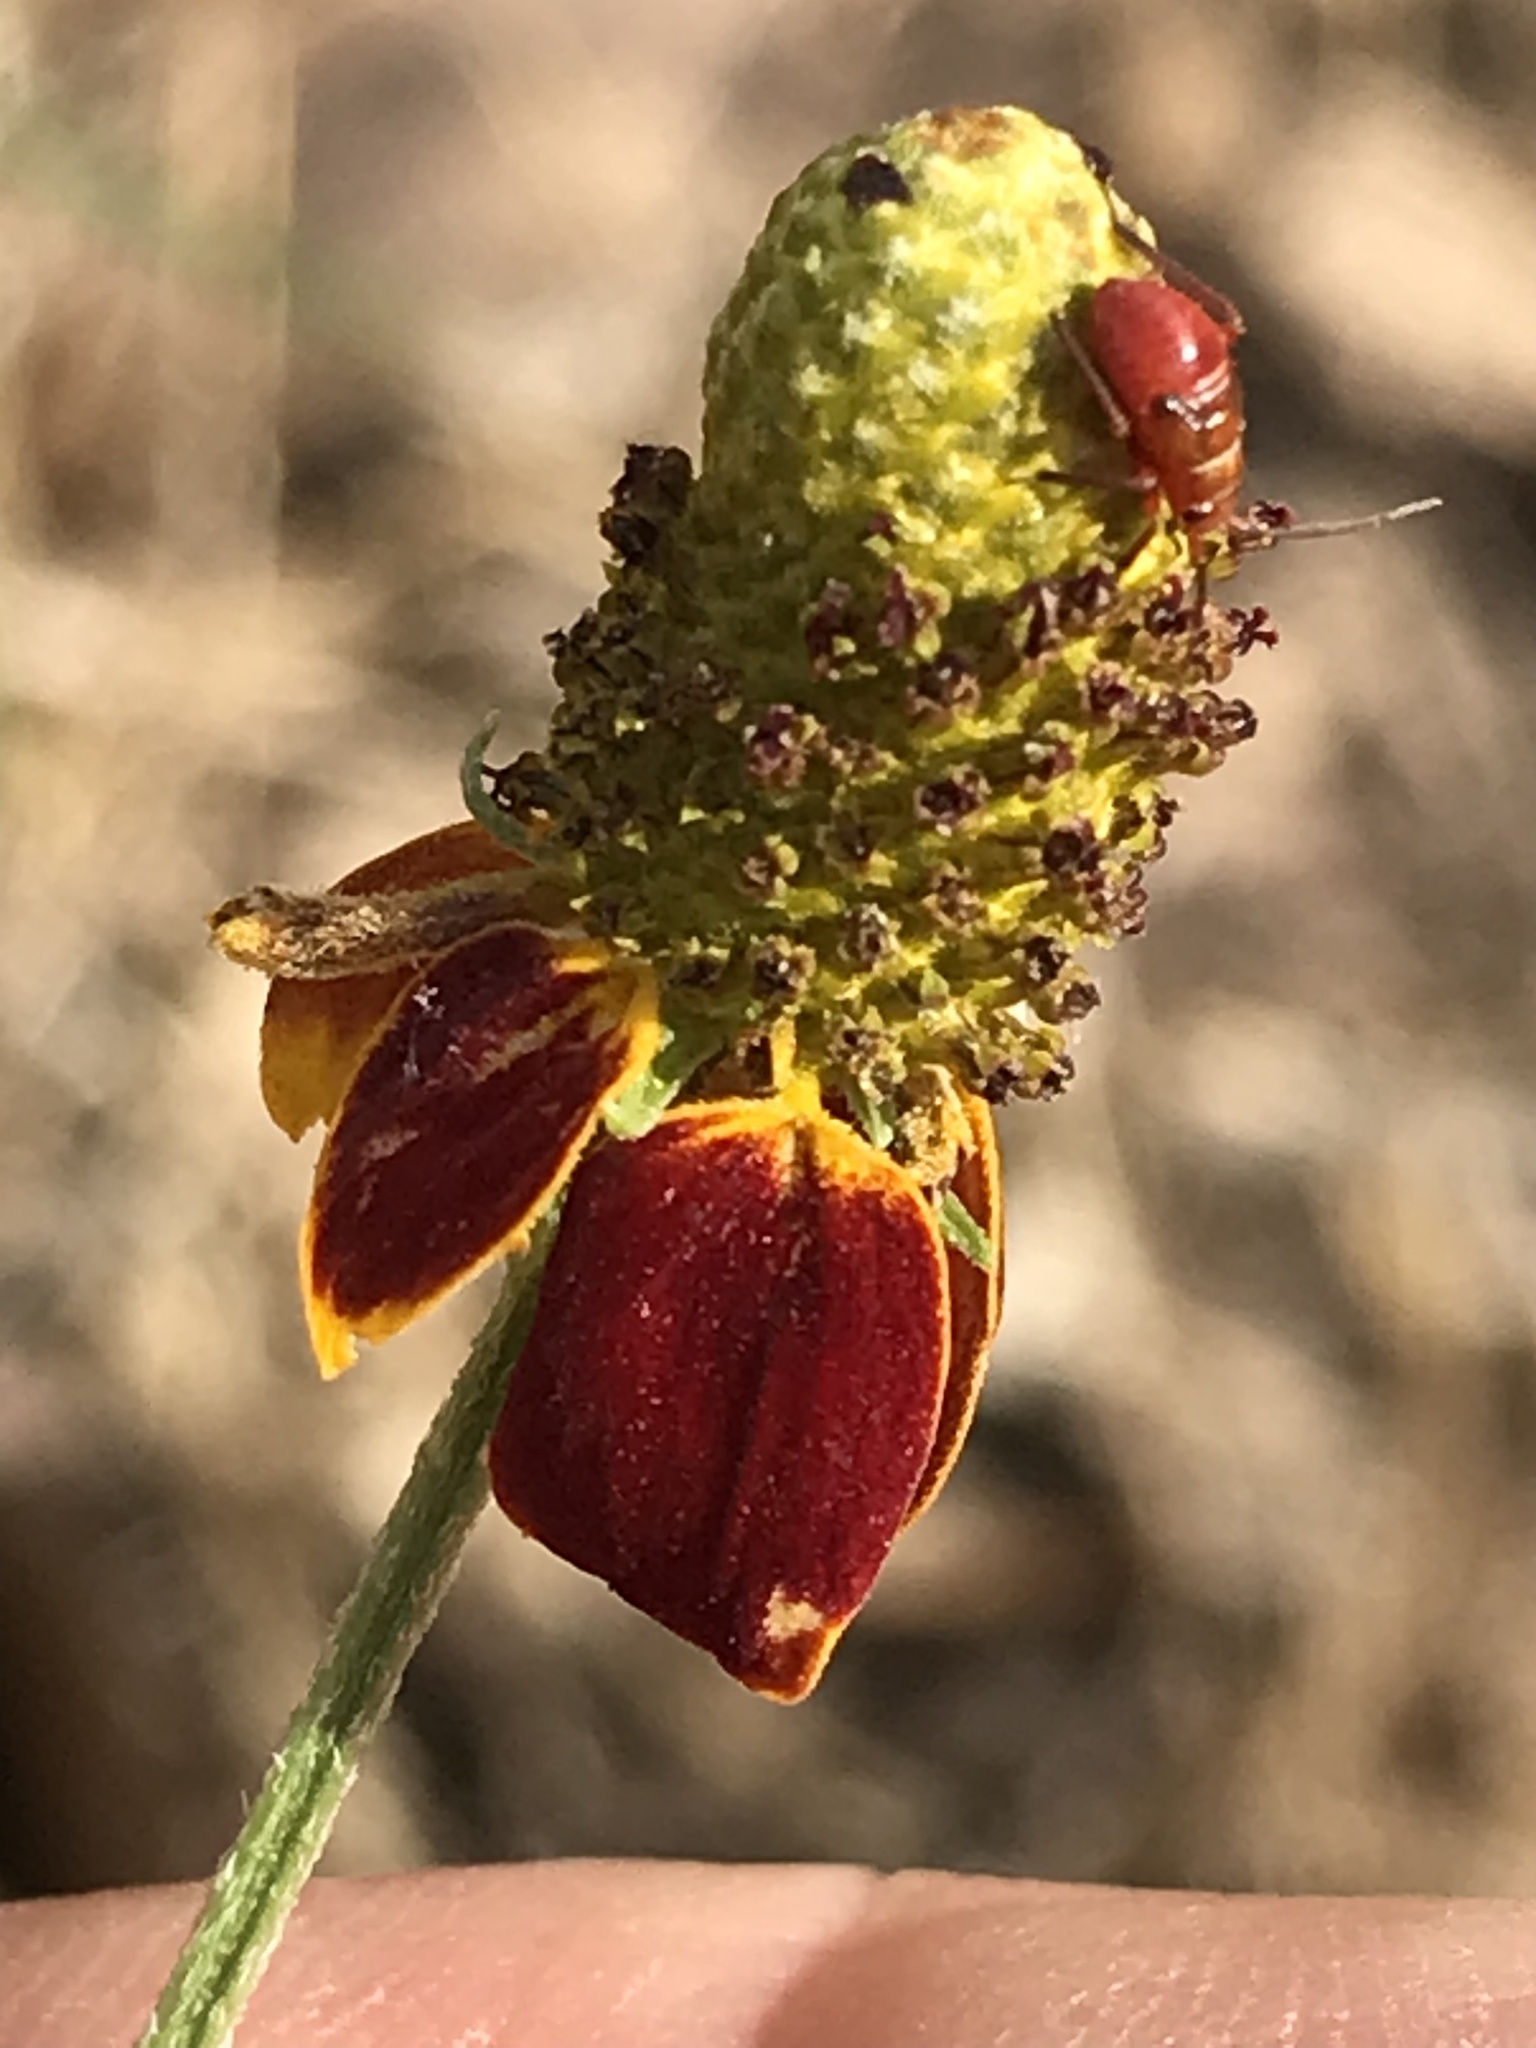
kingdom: Animalia
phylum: Arthropoda
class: Insecta
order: Hemiptera
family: Miridae
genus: Calocoris
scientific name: Calocoris barberi
